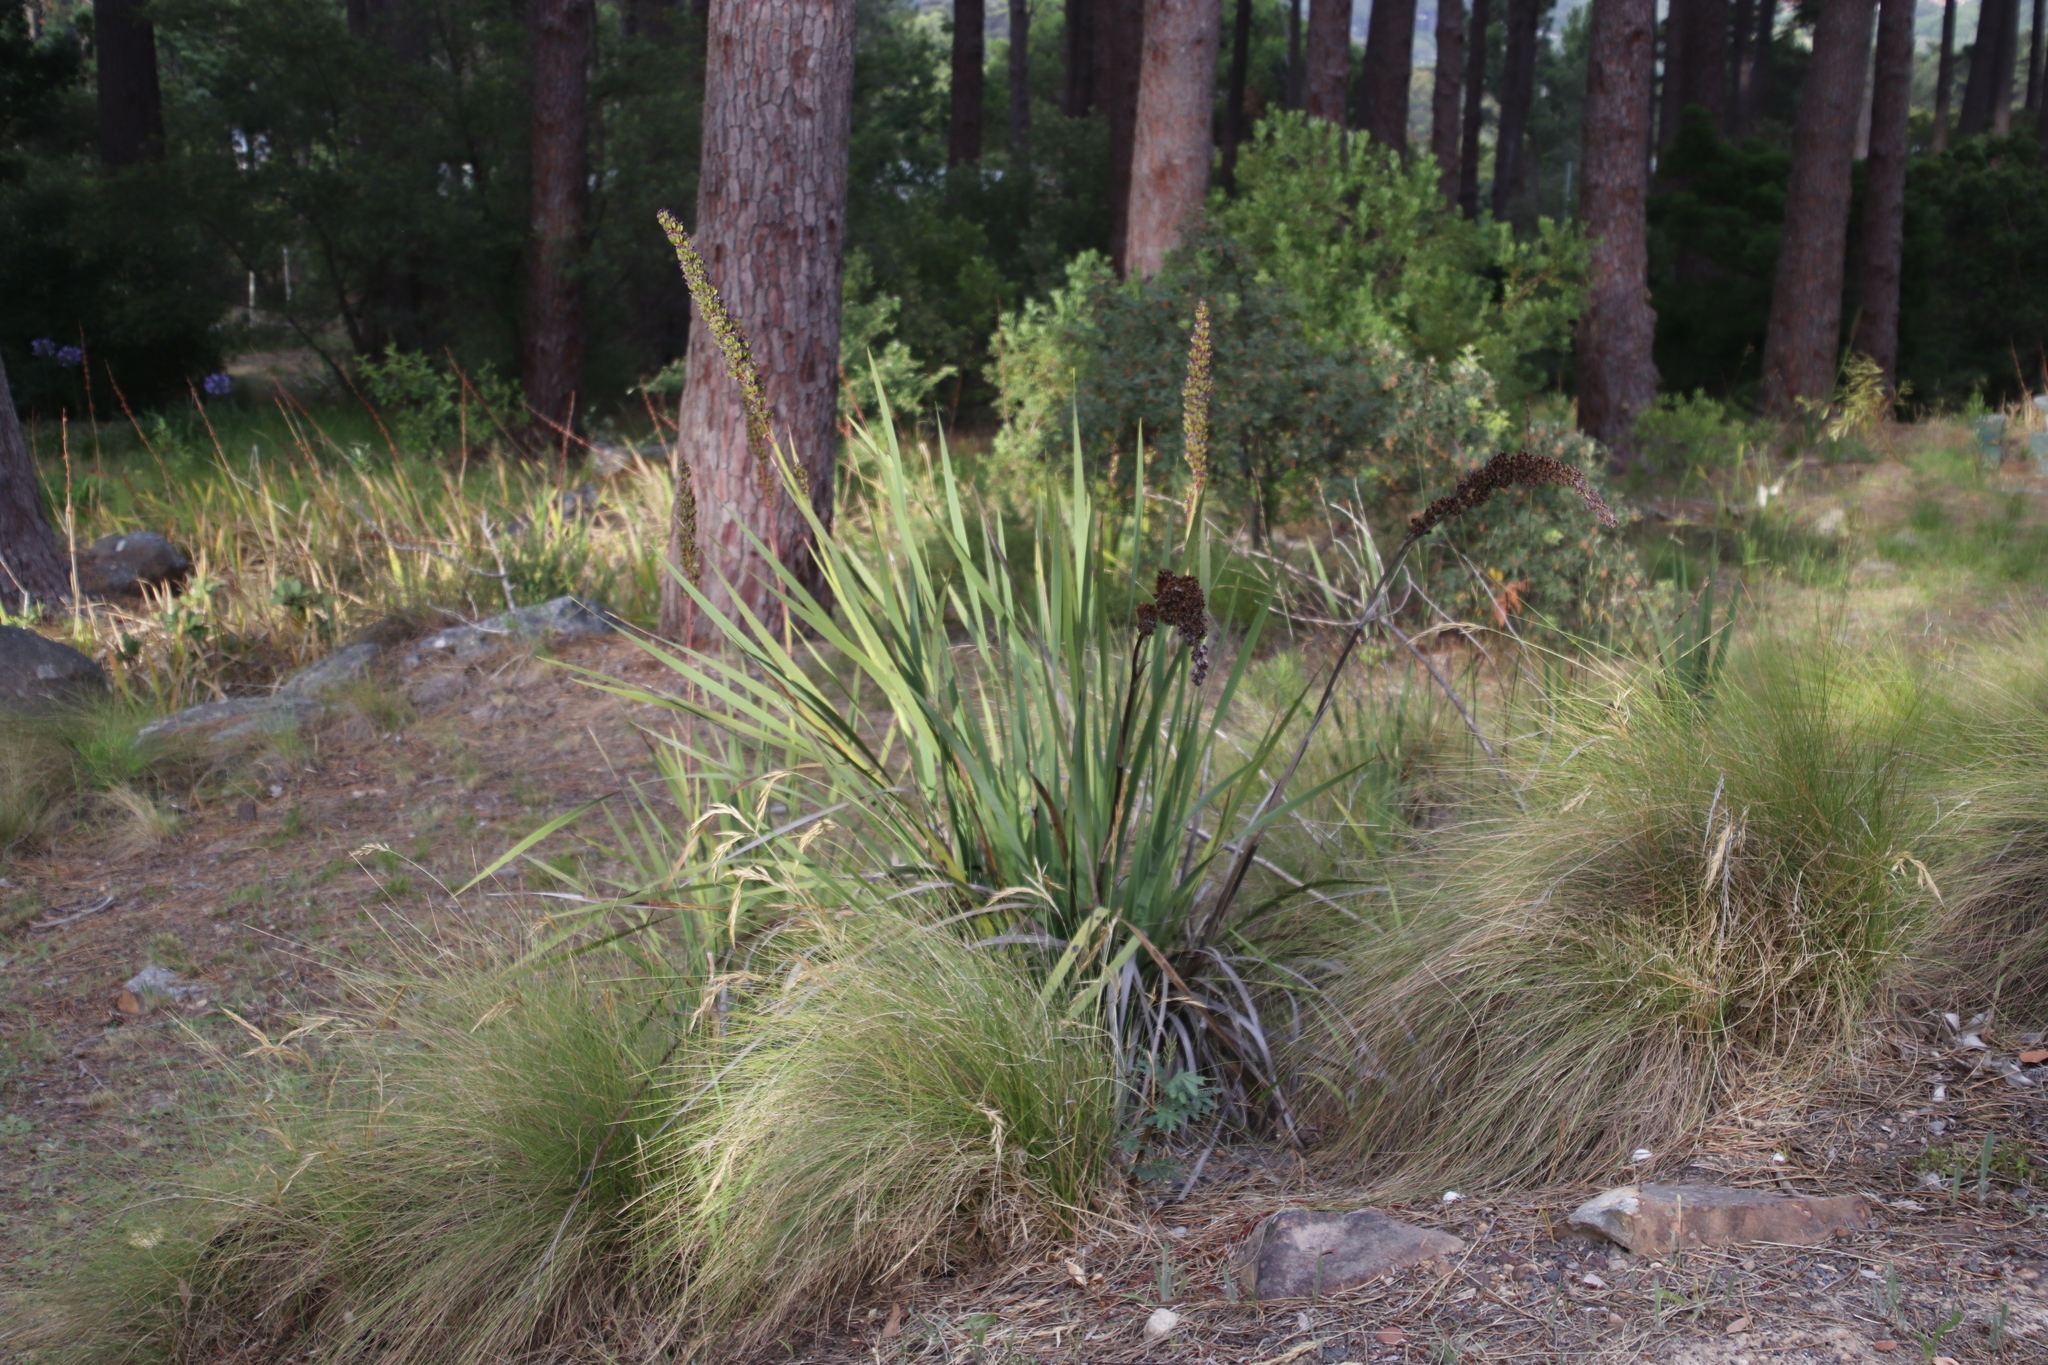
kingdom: Plantae
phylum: Tracheophyta
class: Liliopsida
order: Asparagales
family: Iridaceae
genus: Aristea
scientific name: Aristea capitata
